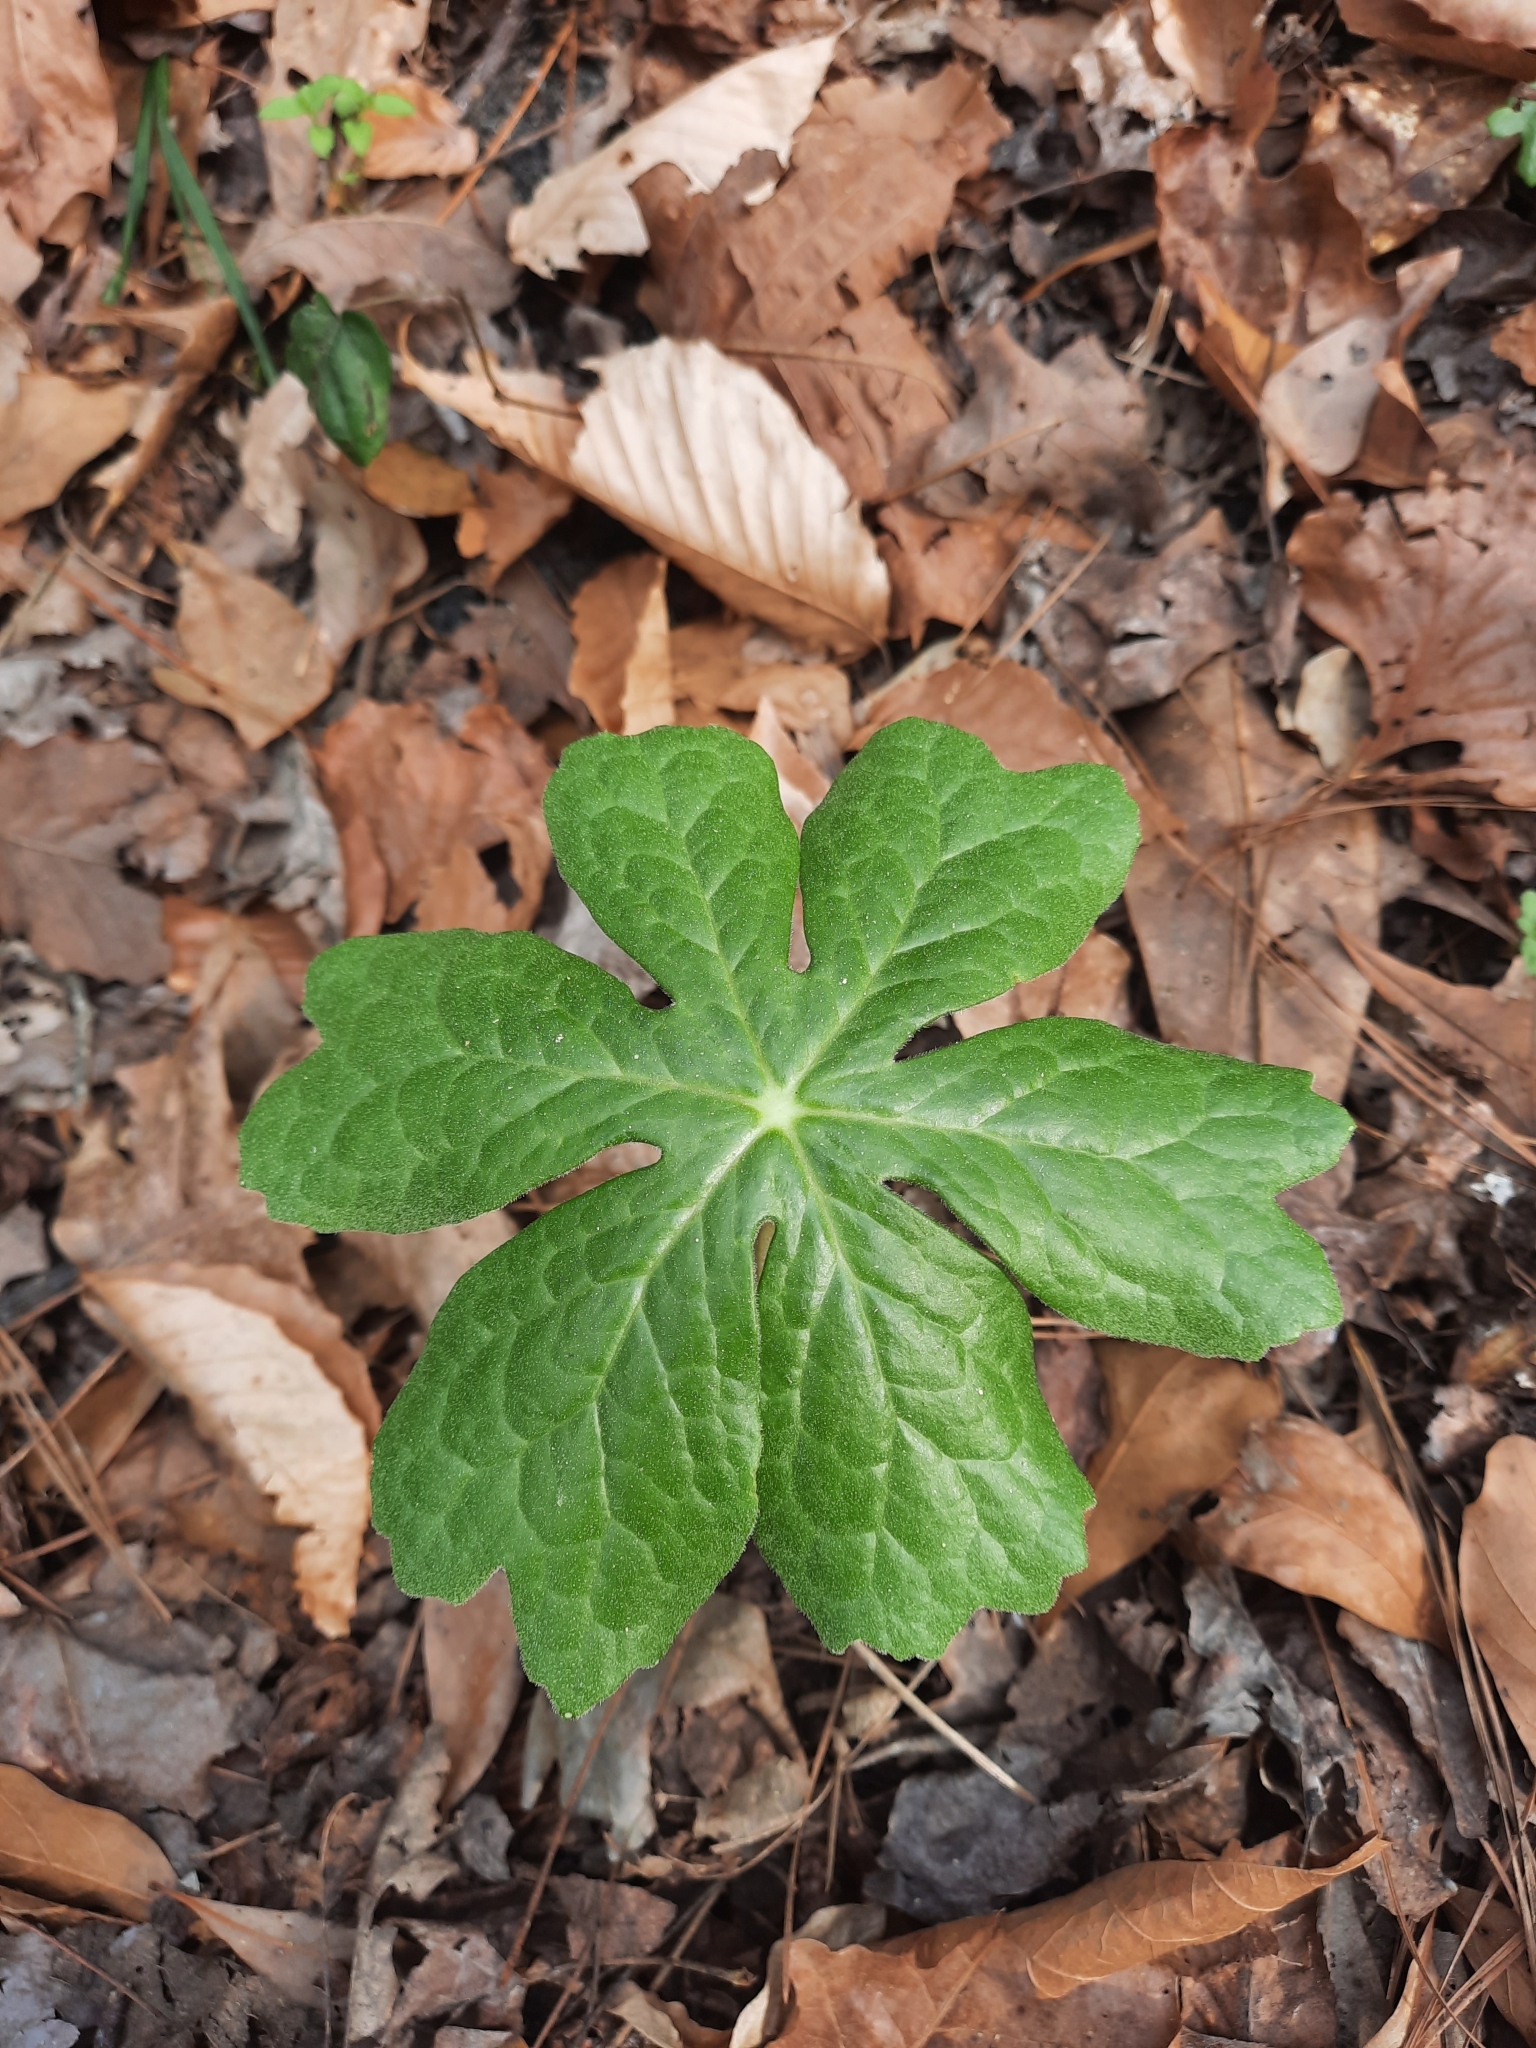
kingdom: Plantae
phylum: Tracheophyta
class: Magnoliopsida
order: Ranunculales
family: Berberidaceae
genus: Podophyllum
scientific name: Podophyllum peltatum
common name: Wild mandrake
